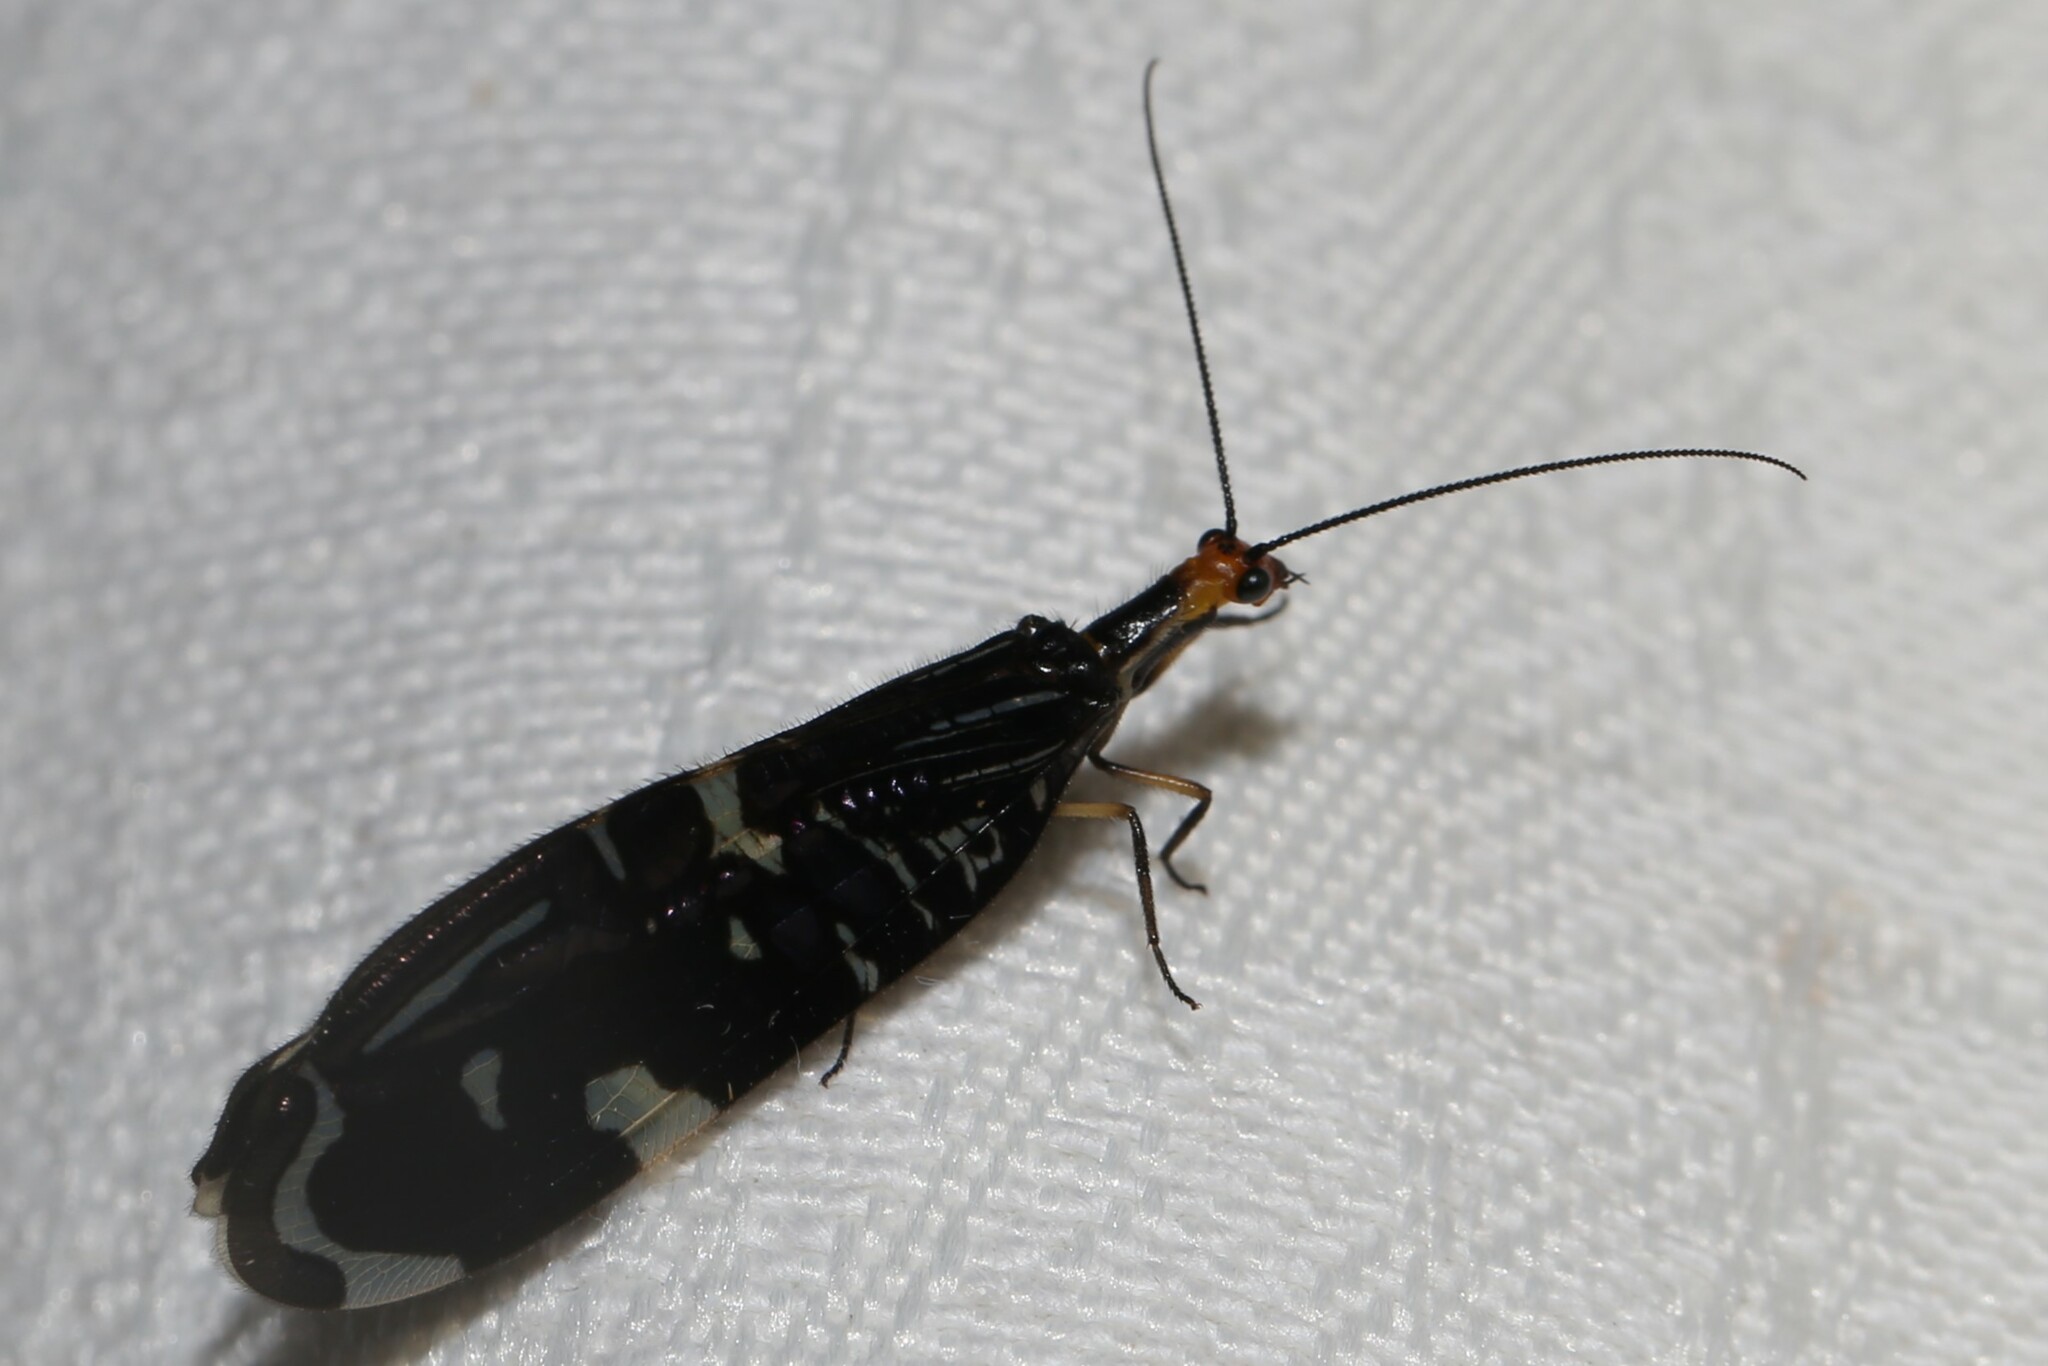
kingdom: Animalia
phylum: Arthropoda
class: Insecta
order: Neuroptera
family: Osmylidae
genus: Porismus
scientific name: Porismus strigatus
